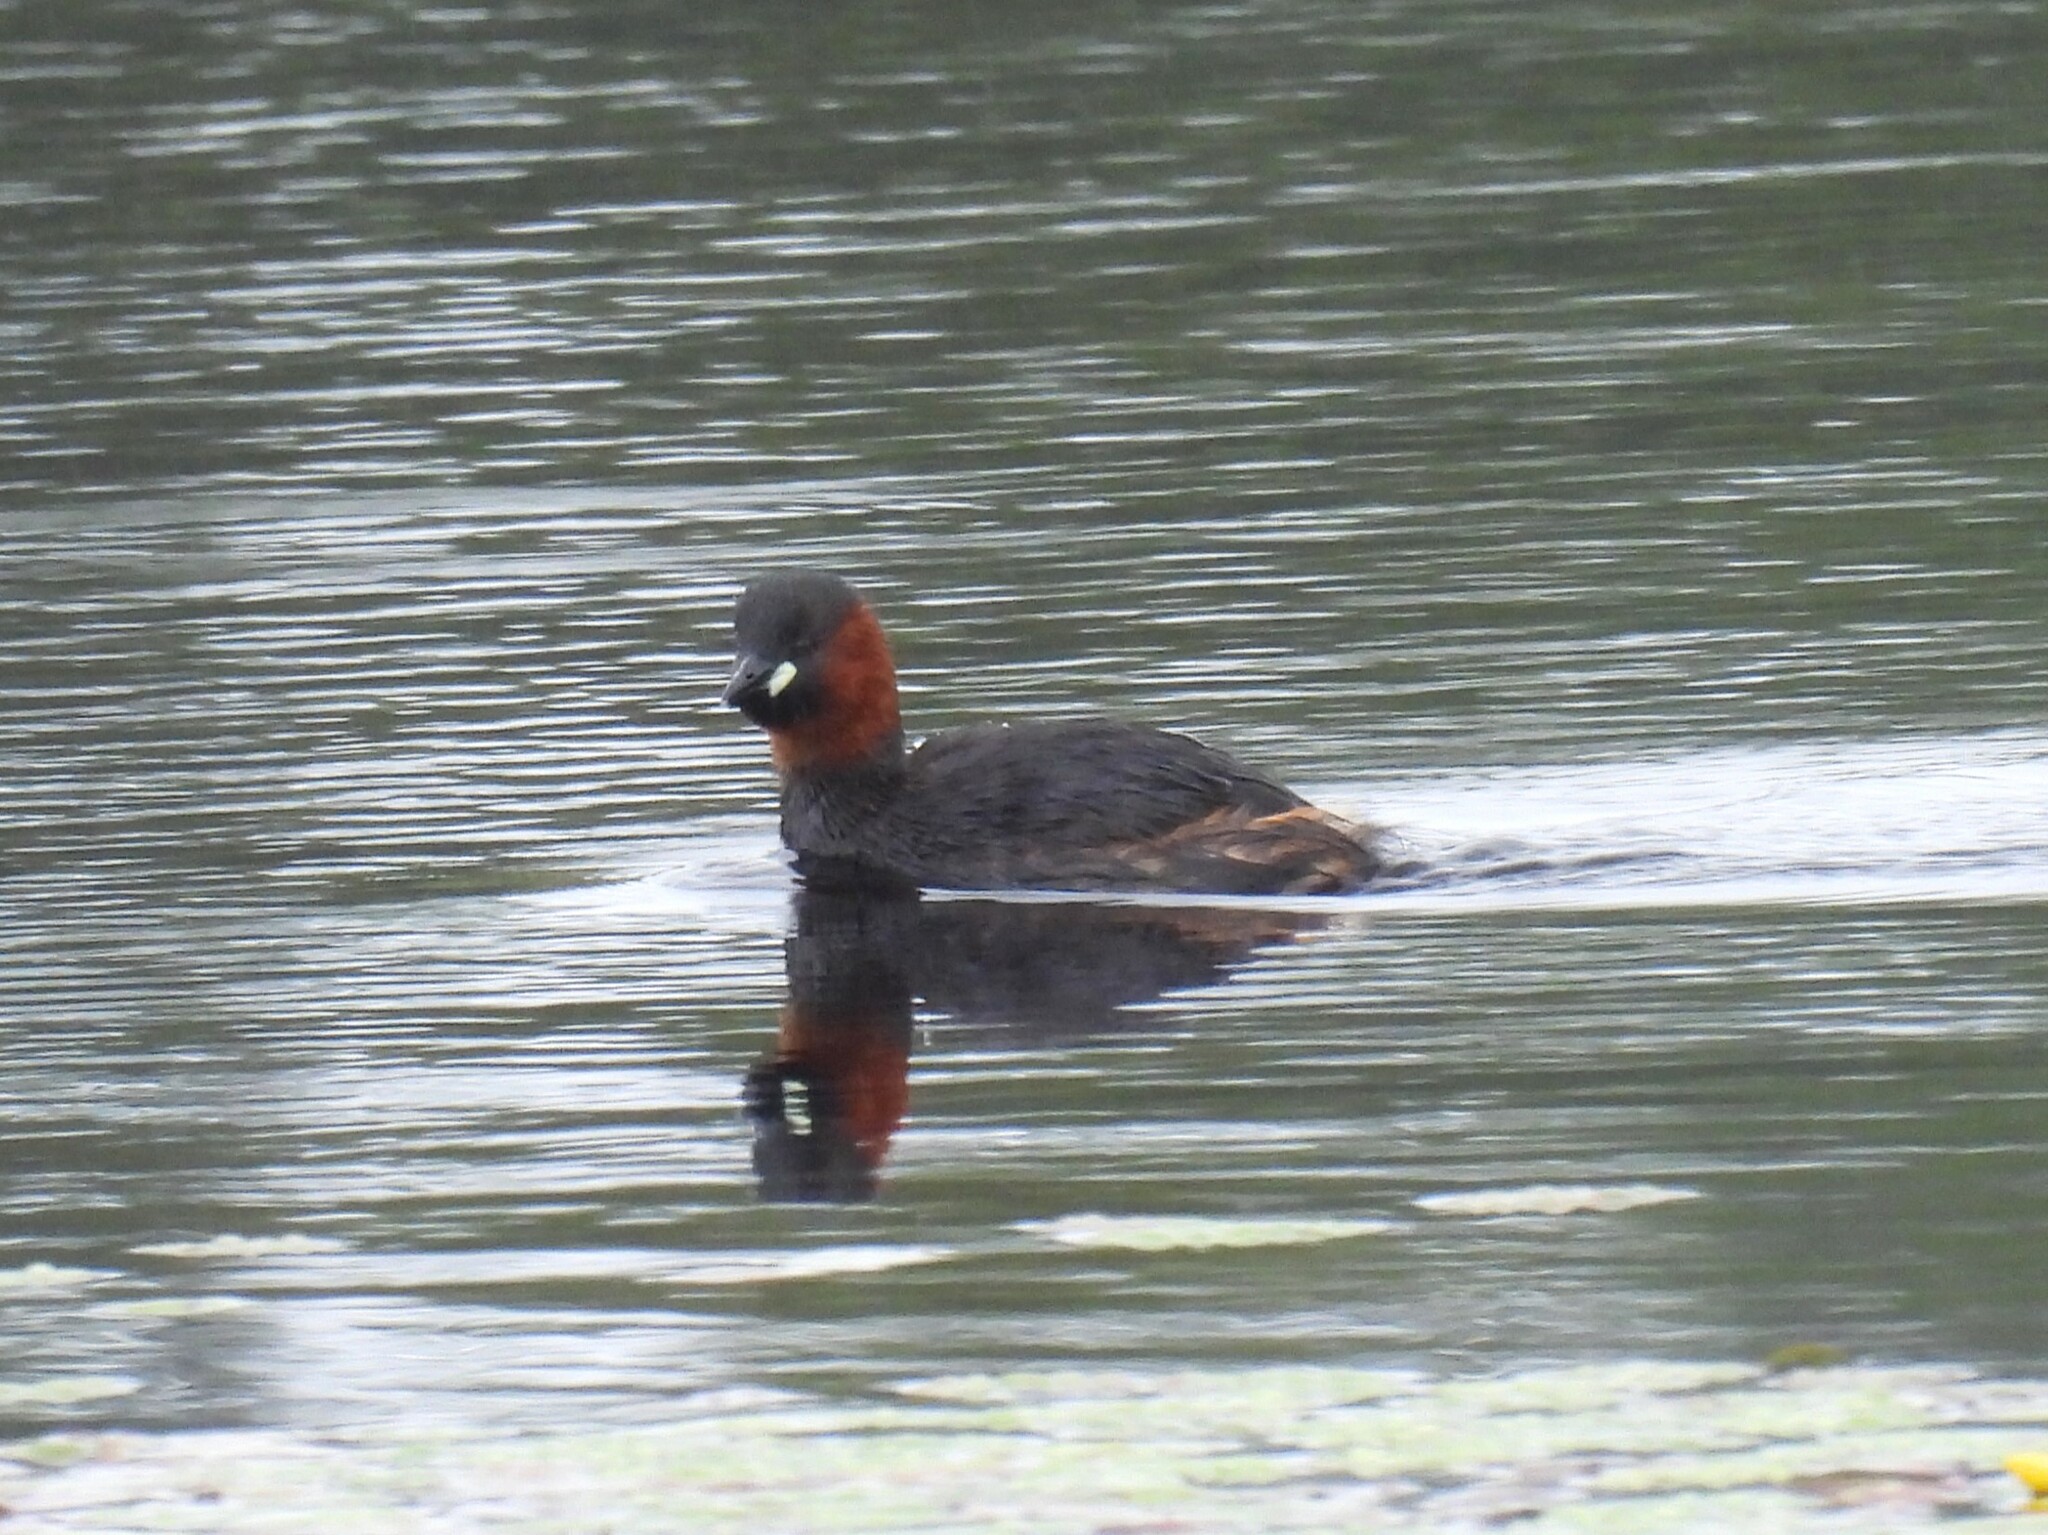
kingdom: Animalia
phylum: Chordata
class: Aves
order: Podicipediformes
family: Podicipedidae
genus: Tachybaptus
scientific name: Tachybaptus ruficollis
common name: Little grebe
